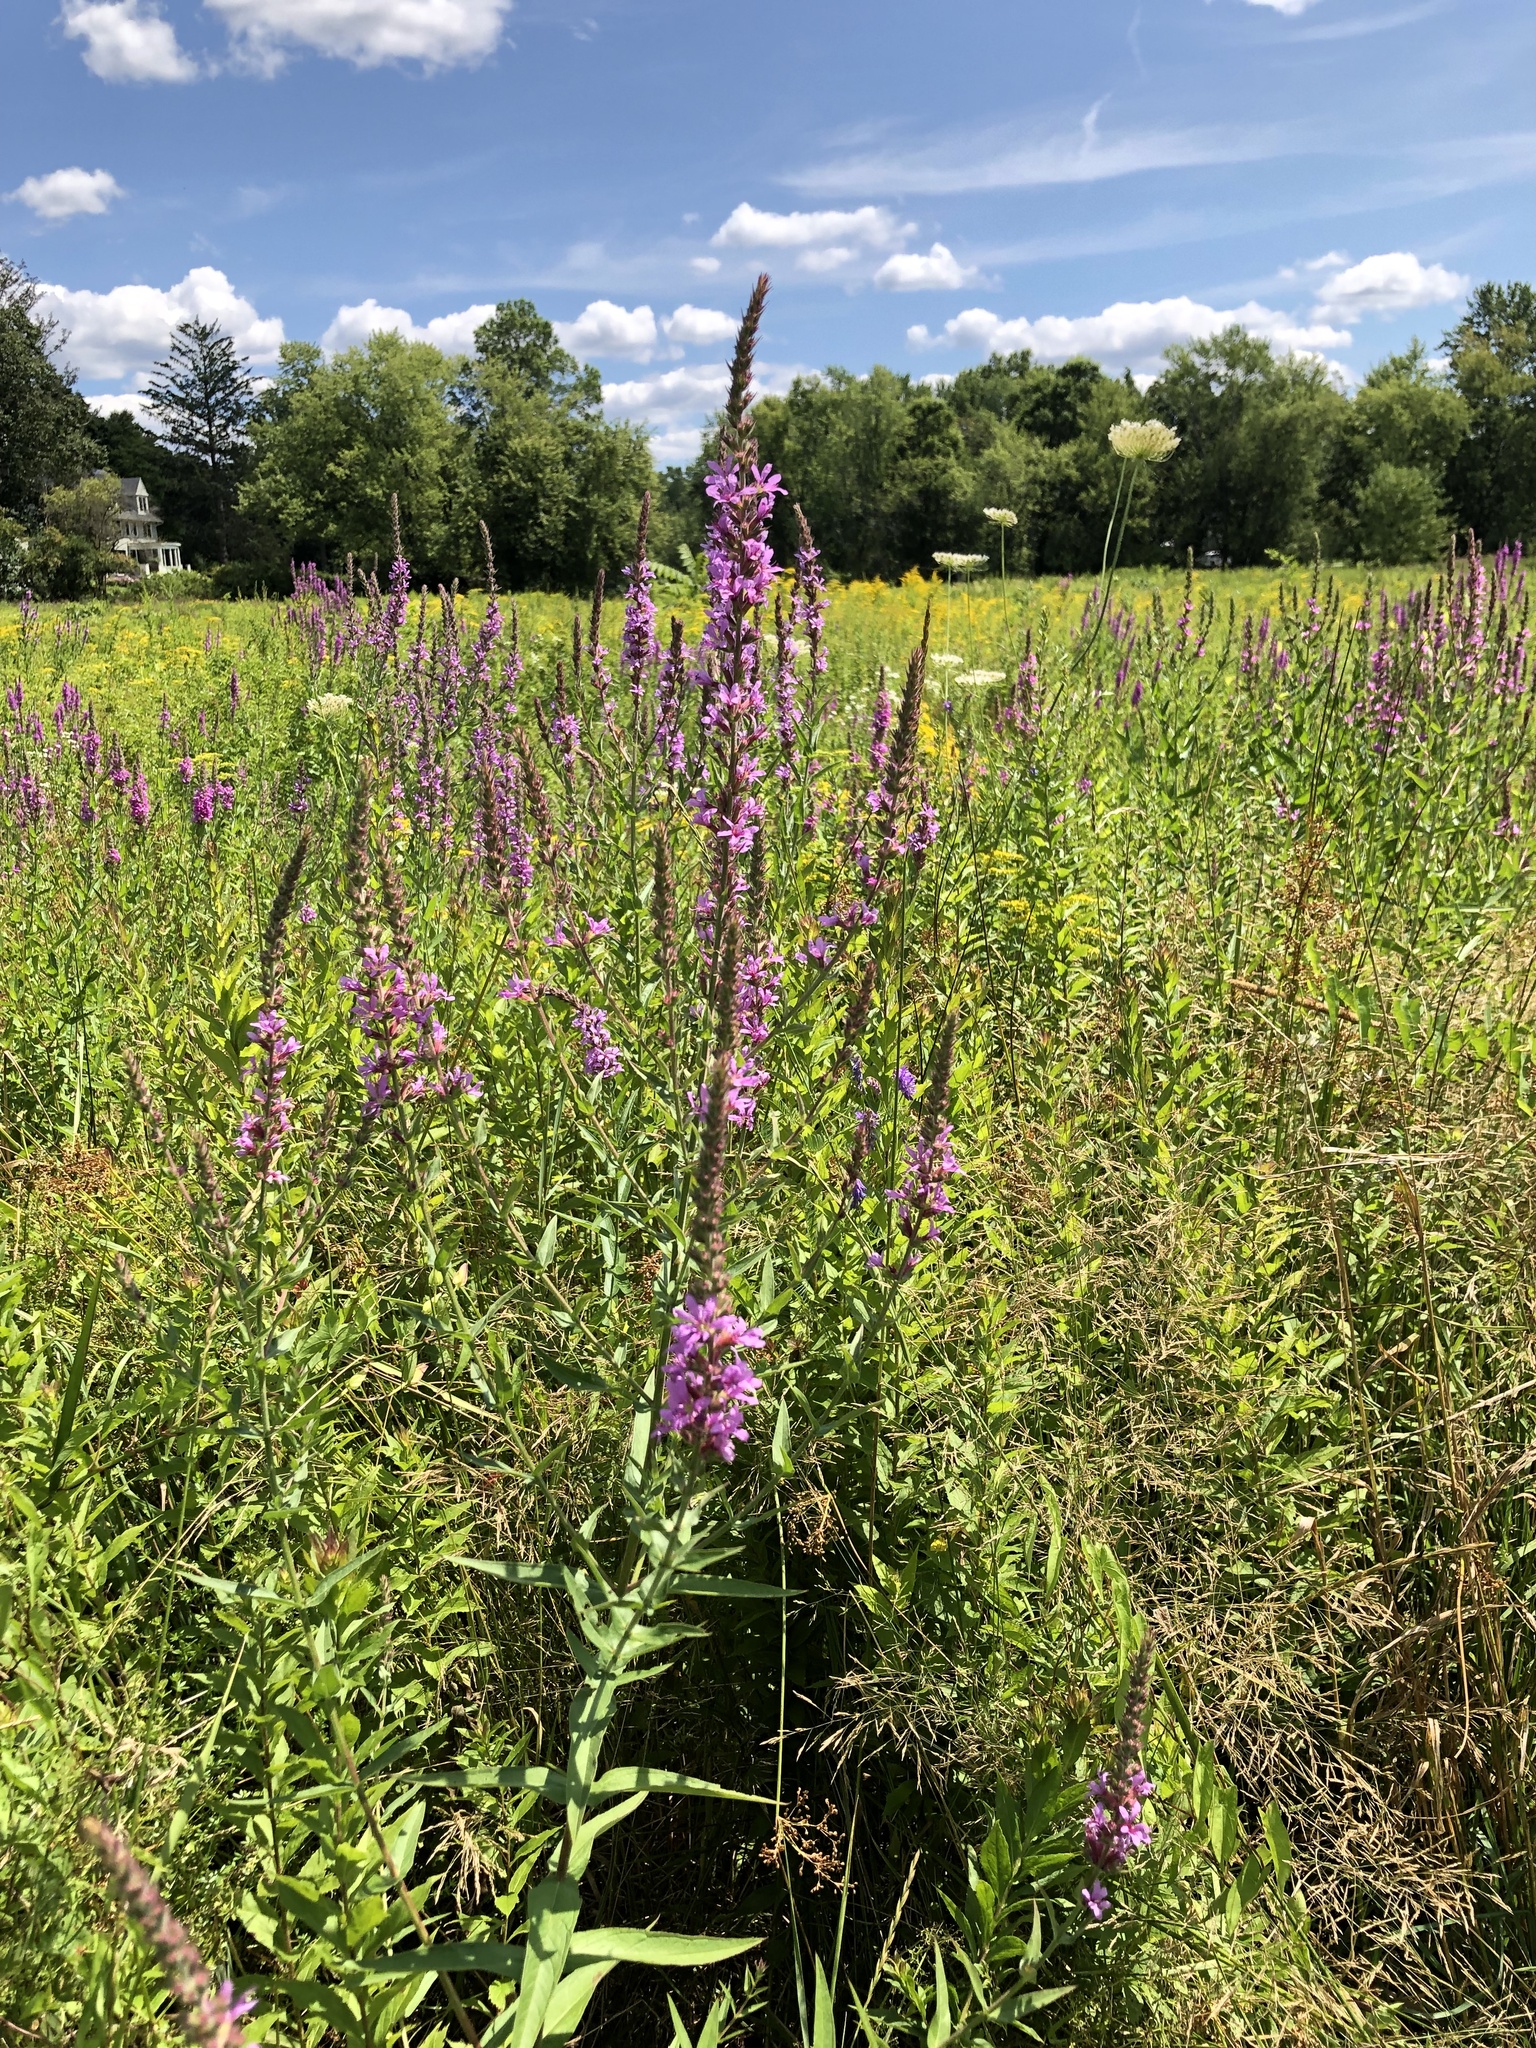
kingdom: Plantae
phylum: Tracheophyta
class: Magnoliopsida
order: Myrtales
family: Lythraceae
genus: Lythrum
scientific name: Lythrum salicaria
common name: Purple loosestrife
